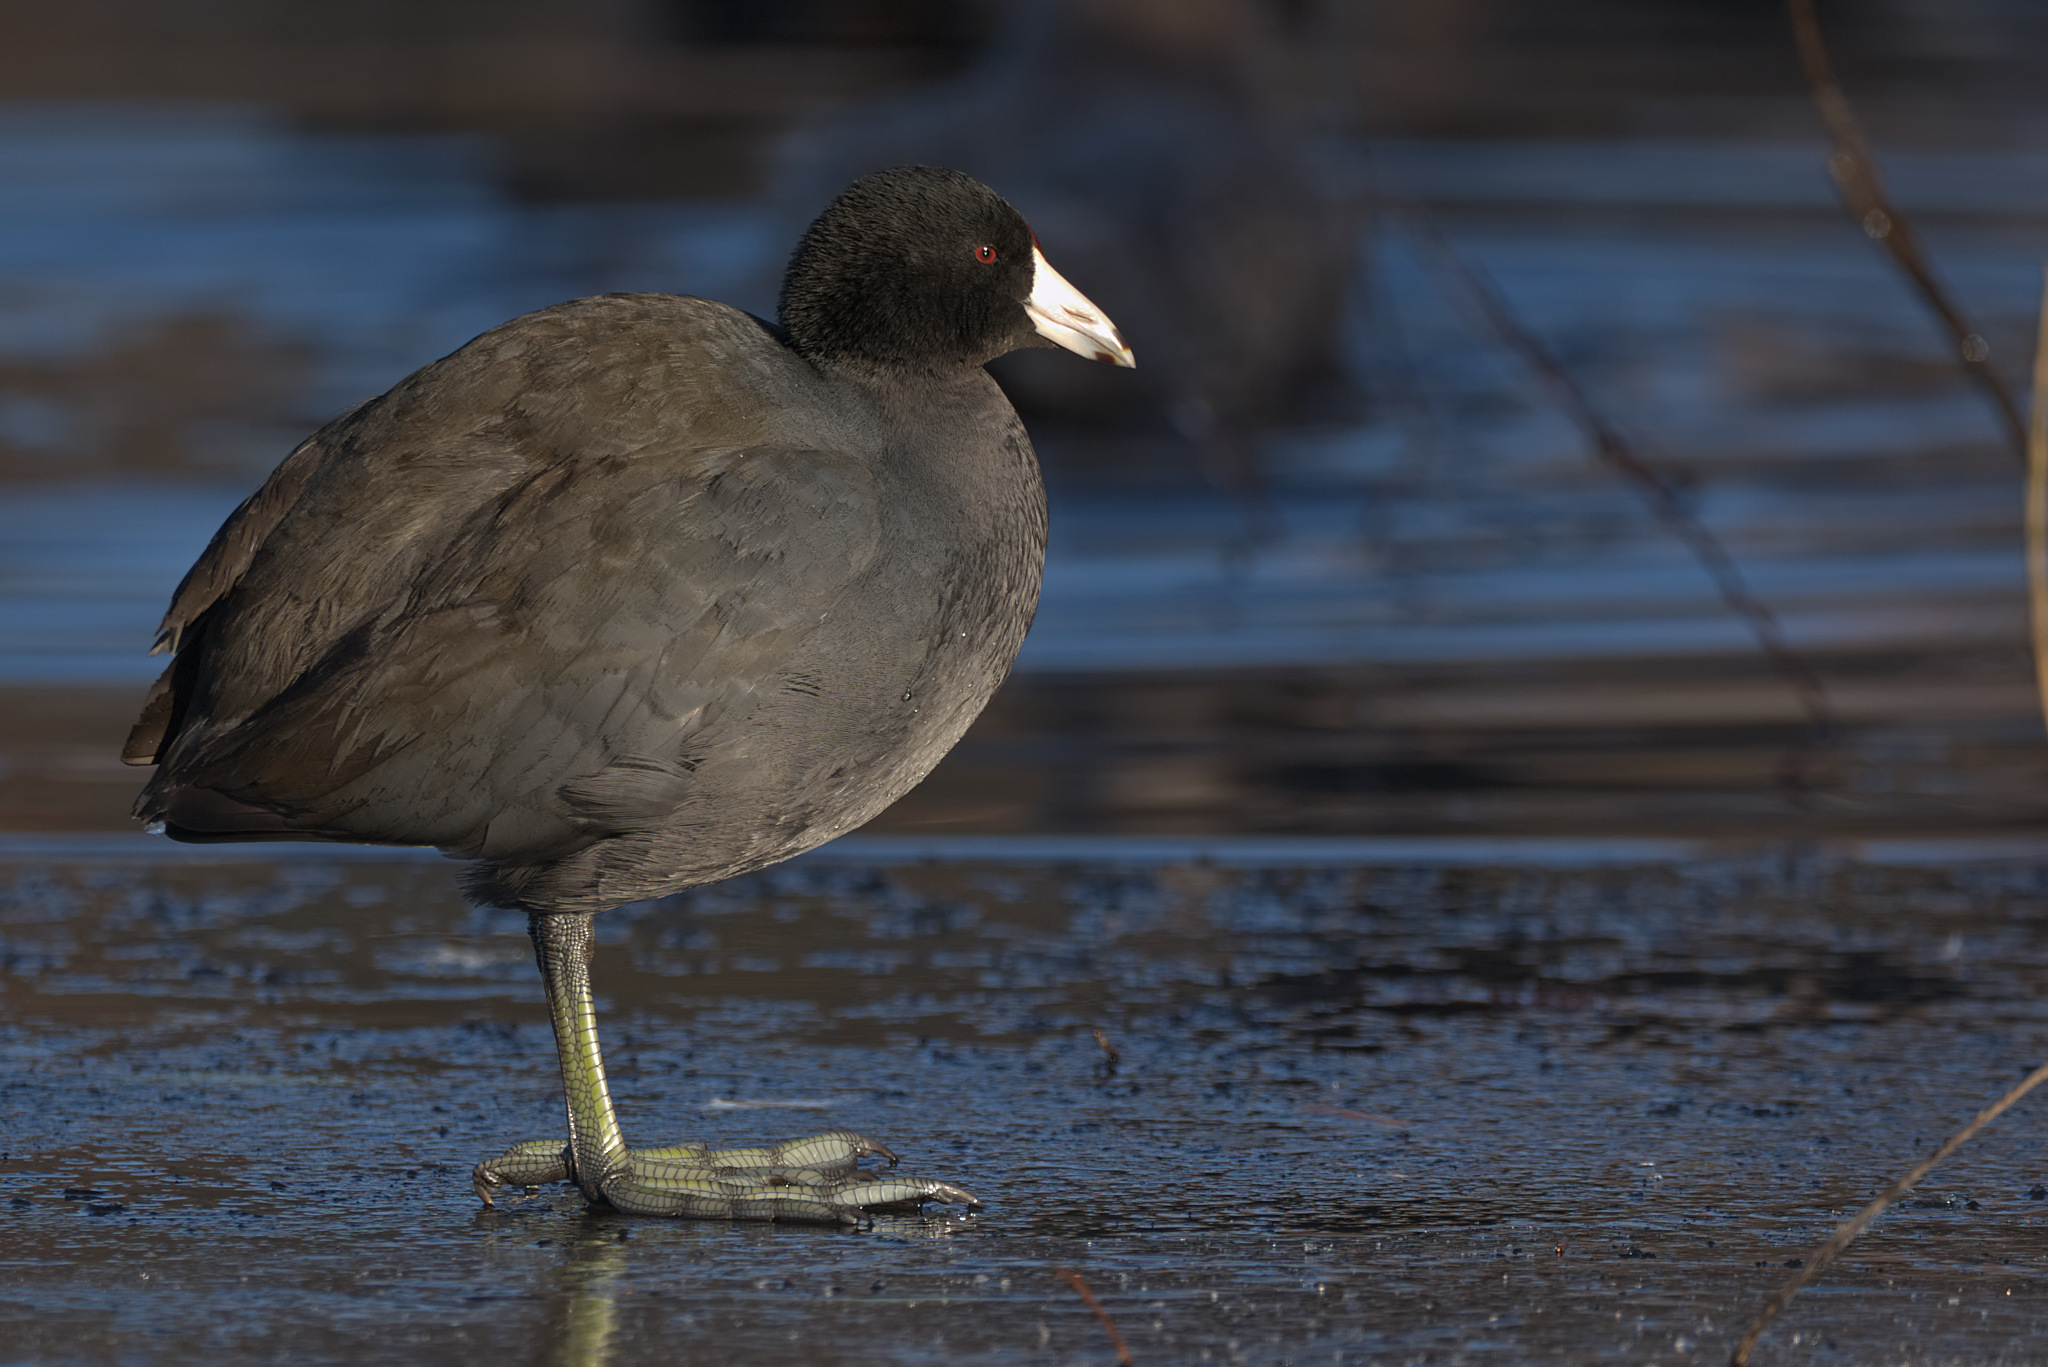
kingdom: Animalia
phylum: Chordata
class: Aves
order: Gruiformes
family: Rallidae
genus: Fulica
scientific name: Fulica americana
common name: American coot
